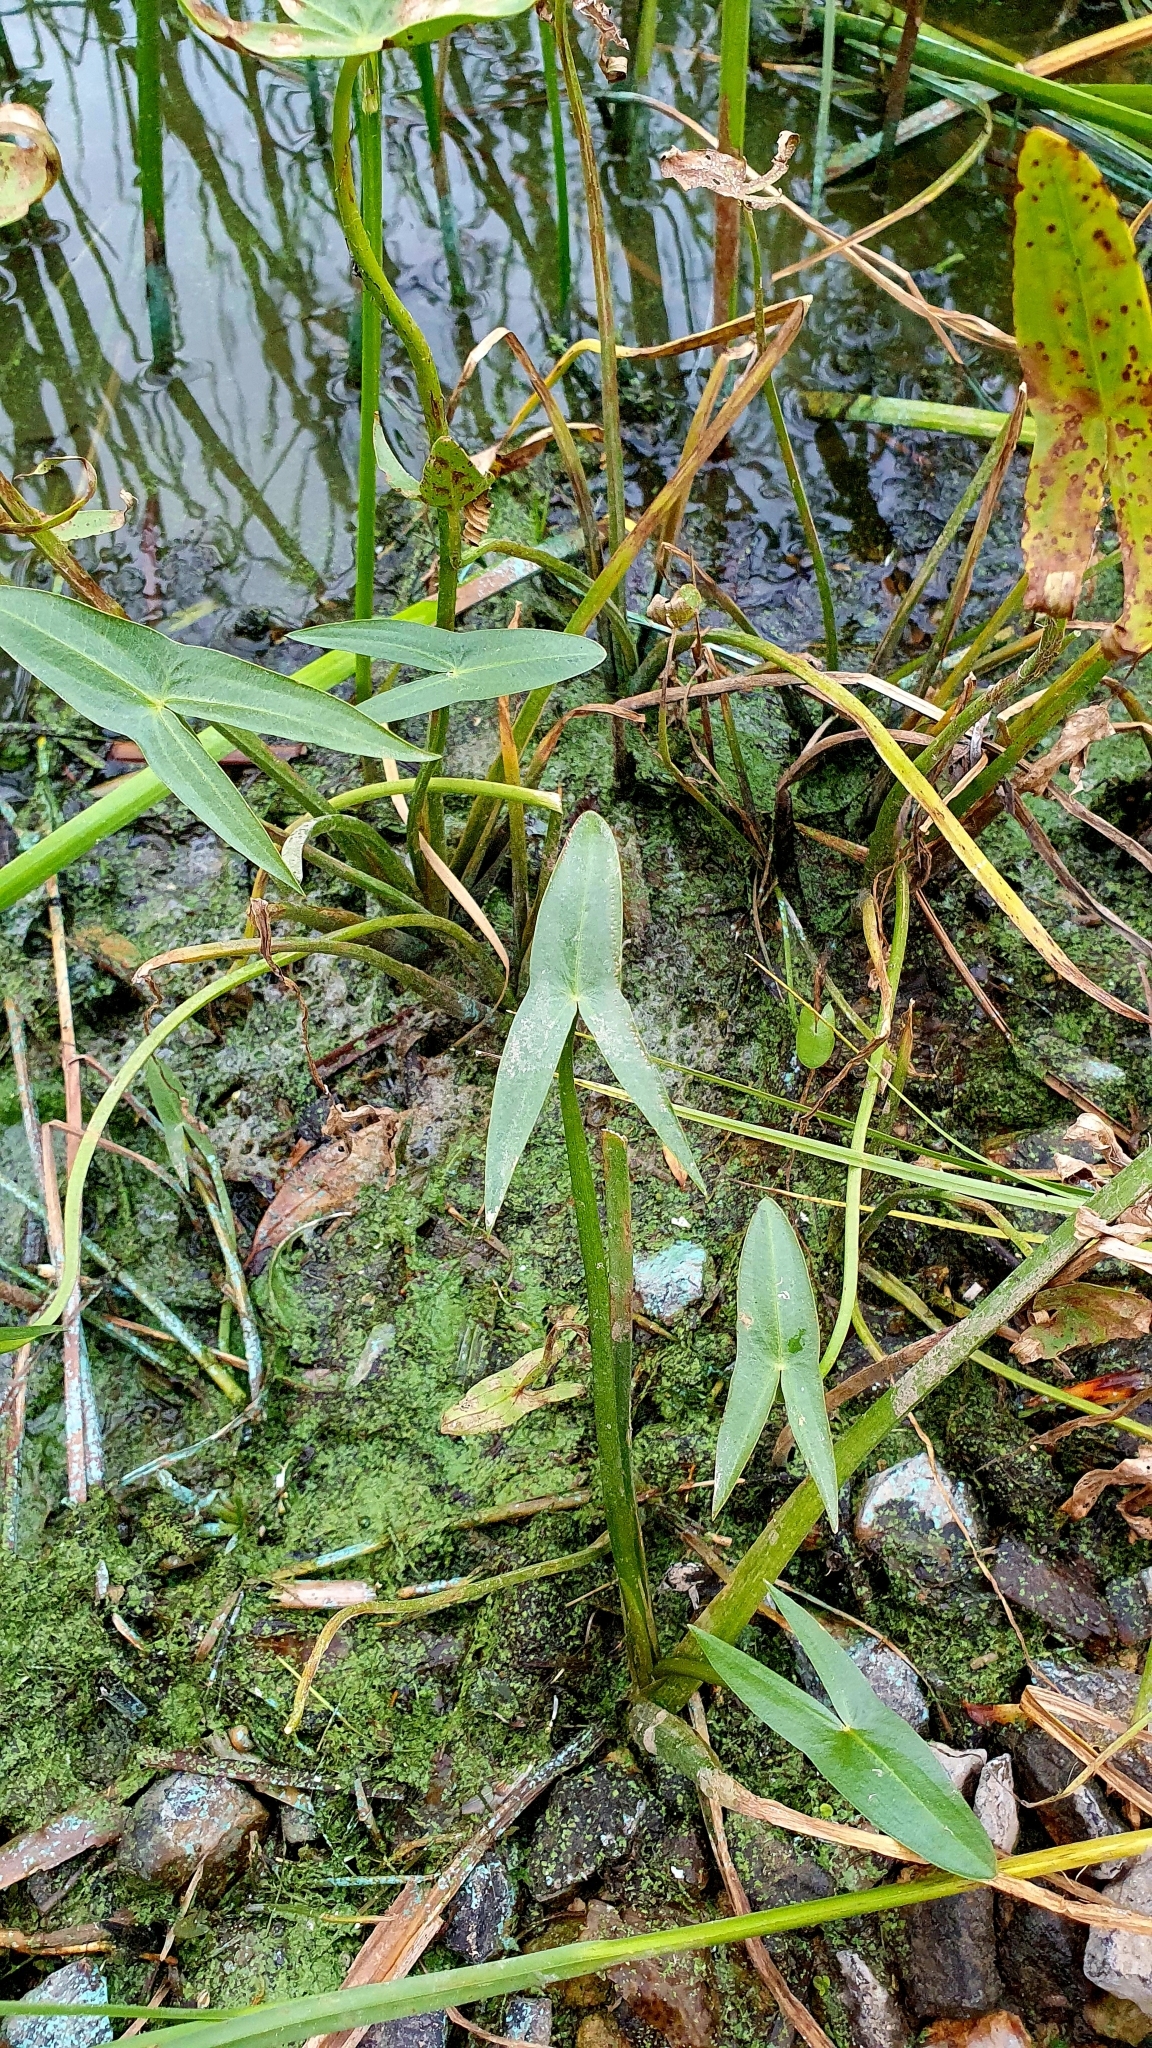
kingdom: Plantae
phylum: Tracheophyta
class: Liliopsida
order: Alismatales
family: Alismataceae
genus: Sagittaria
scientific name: Sagittaria sagittifolia
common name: Arrowhead
